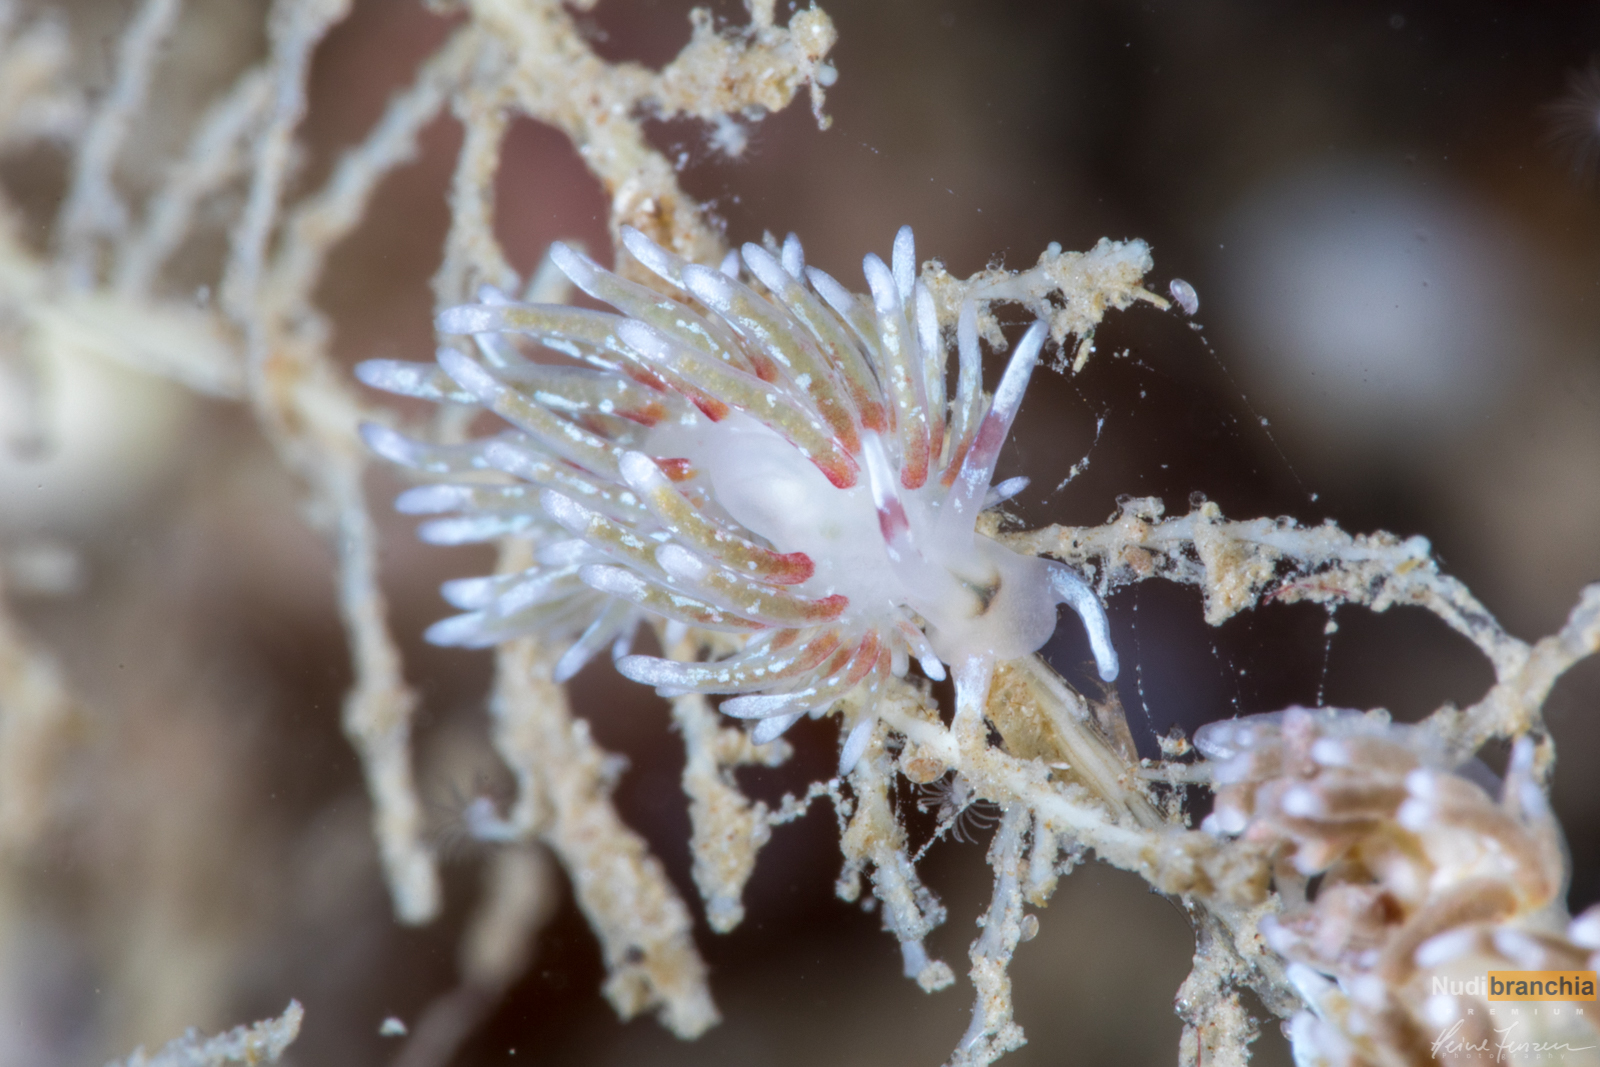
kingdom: Animalia
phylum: Mollusca
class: Gastropoda
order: Nudibranchia
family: Trinchesiidae
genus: Rubramoena
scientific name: Rubramoena rubescens
